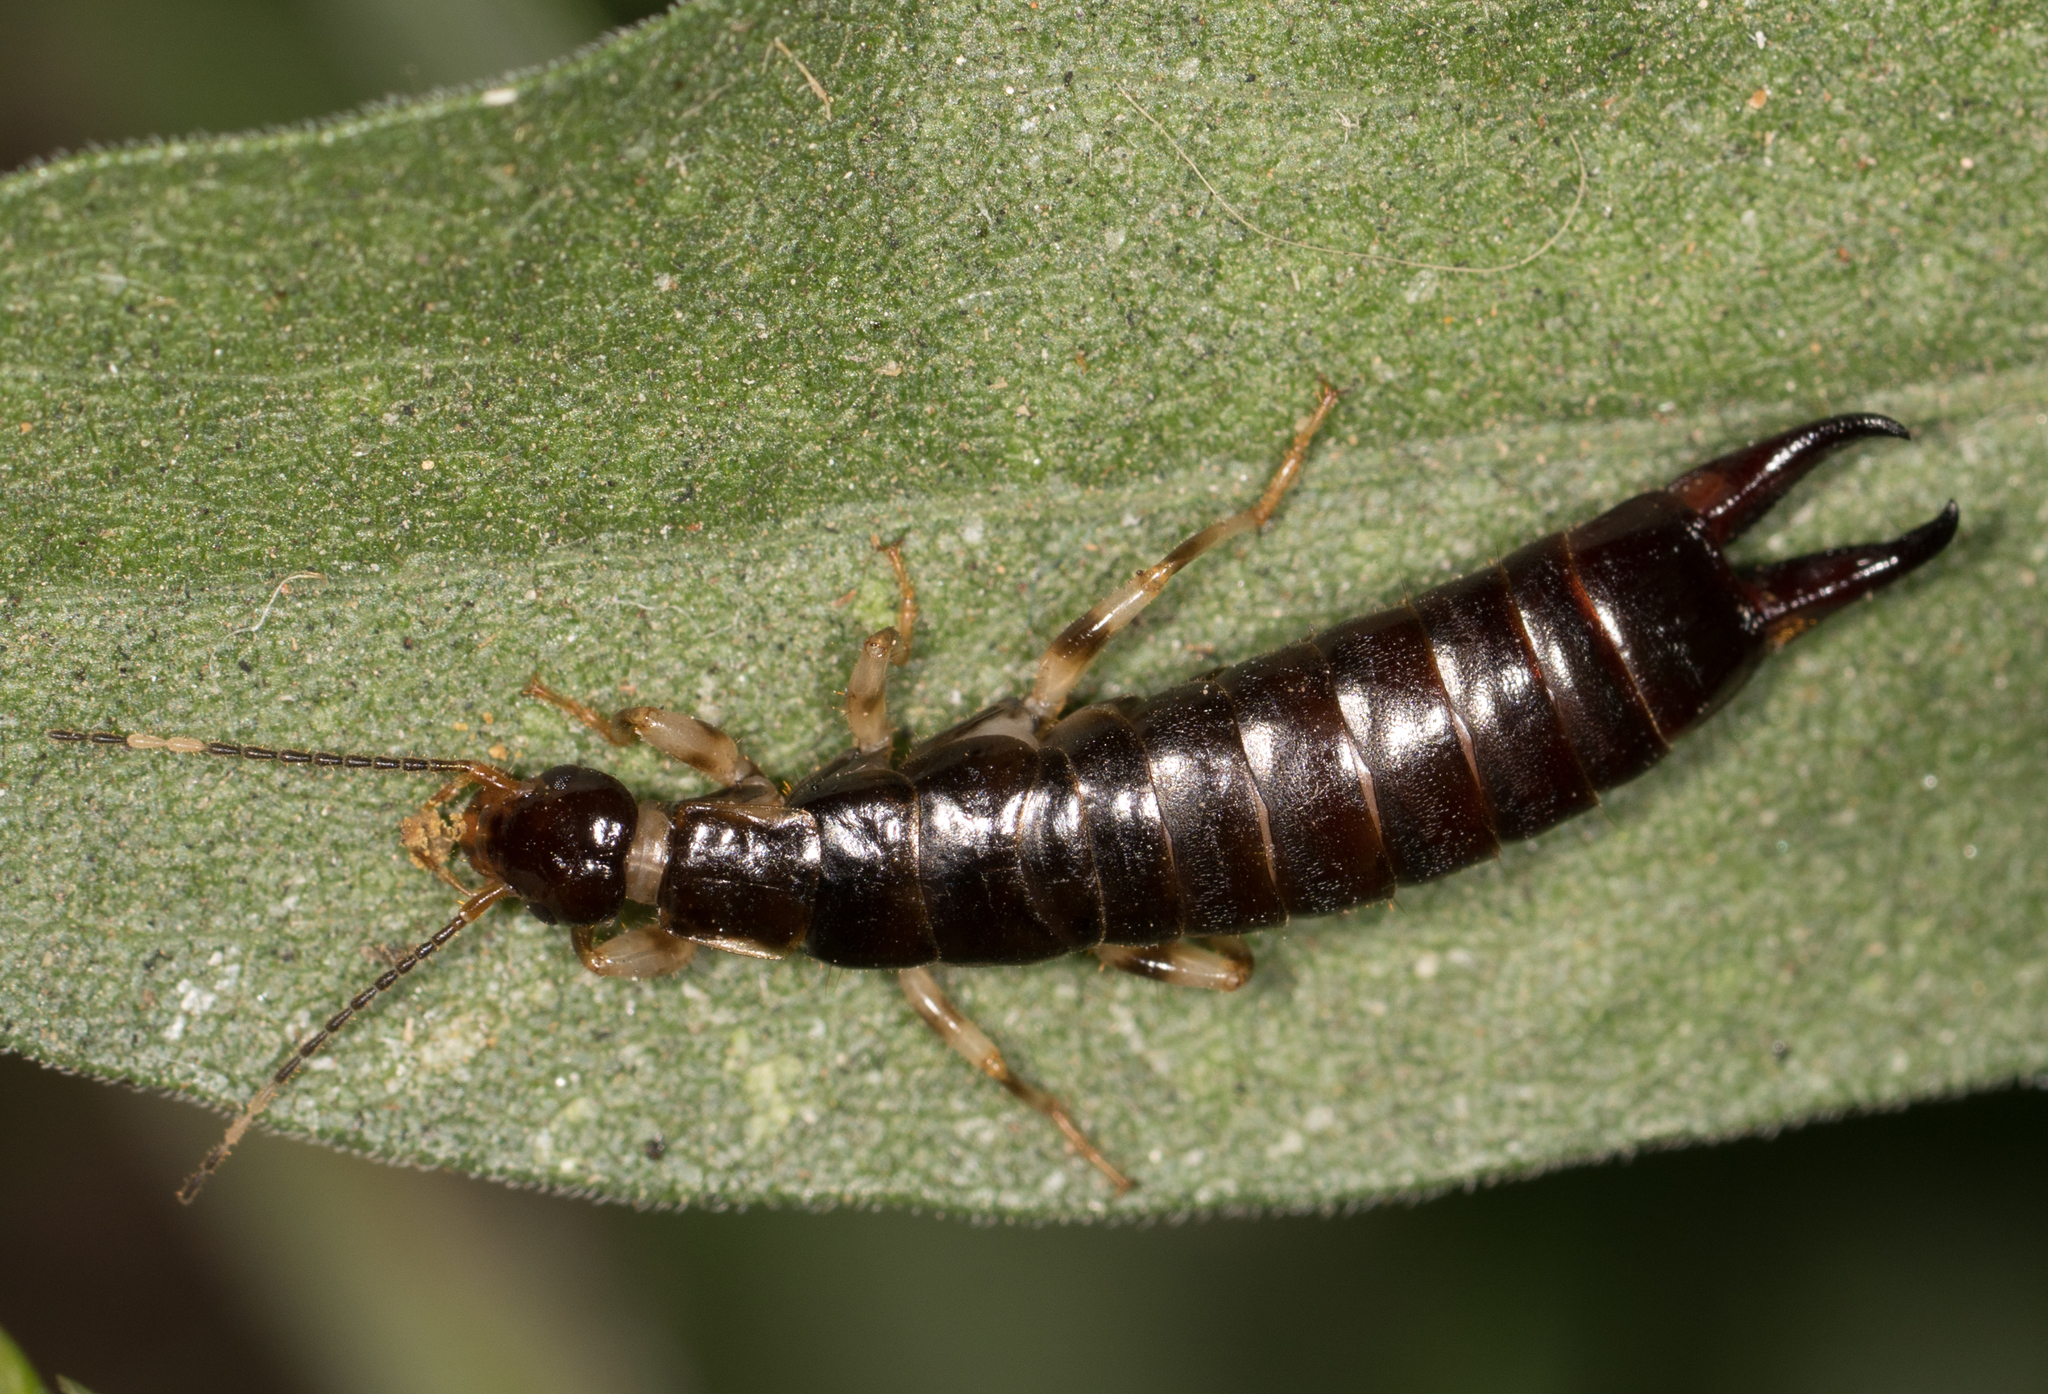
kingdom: Animalia
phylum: Arthropoda
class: Insecta
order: Dermaptera
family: Anisolabididae
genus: Euborellia
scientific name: Euborellia annulipes
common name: Ringlegged earwig
